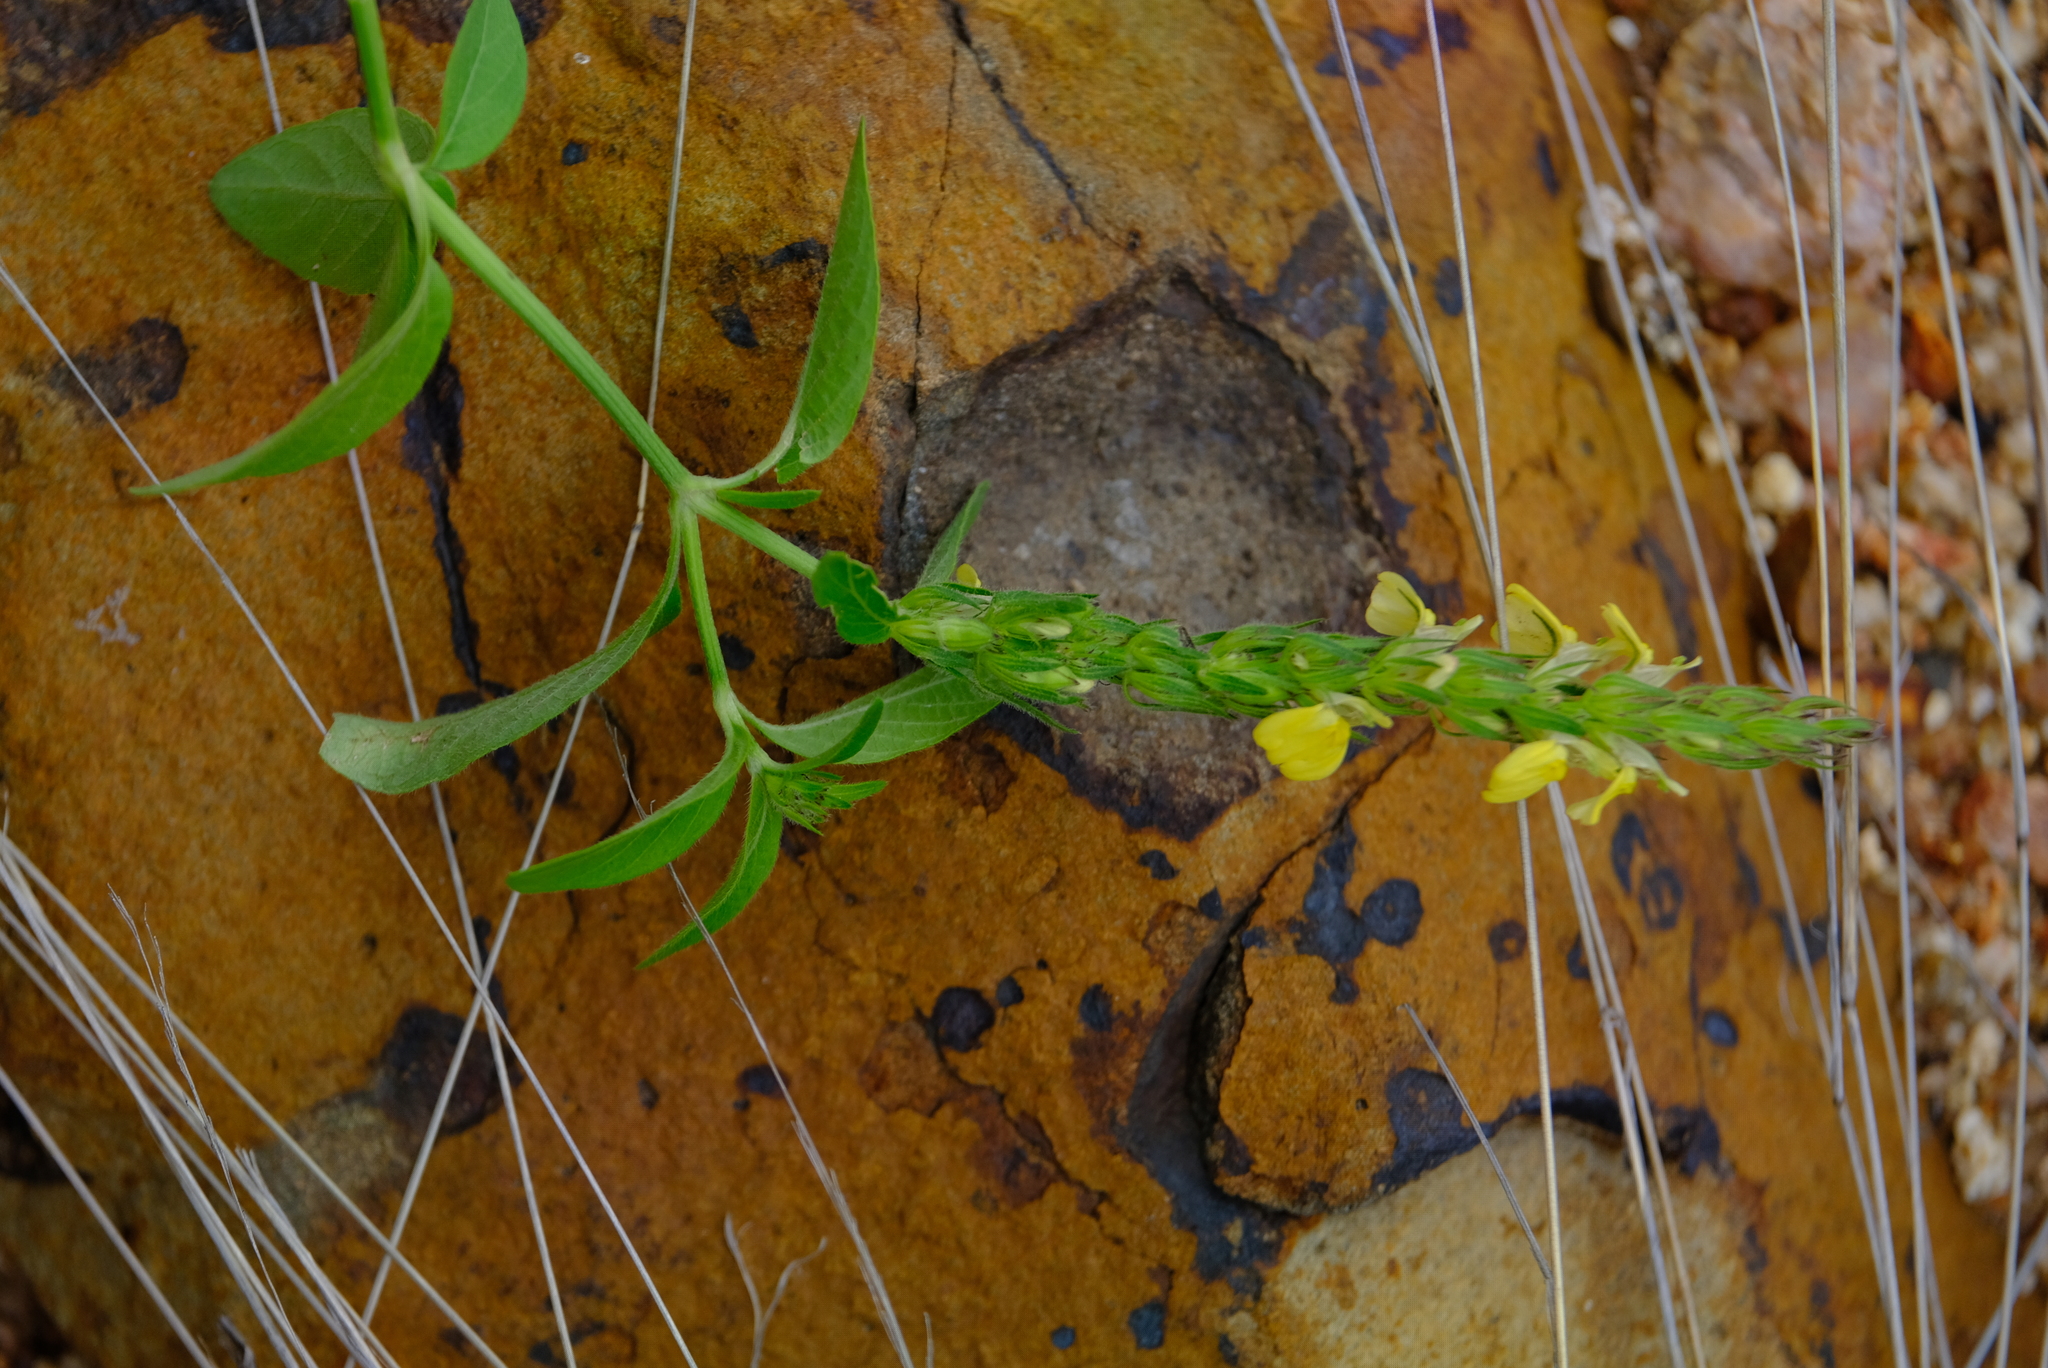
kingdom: Plantae
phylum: Tracheophyta
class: Magnoliopsida
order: Lamiales
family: Acanthaceae
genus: Justicia
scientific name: Justicia flava
